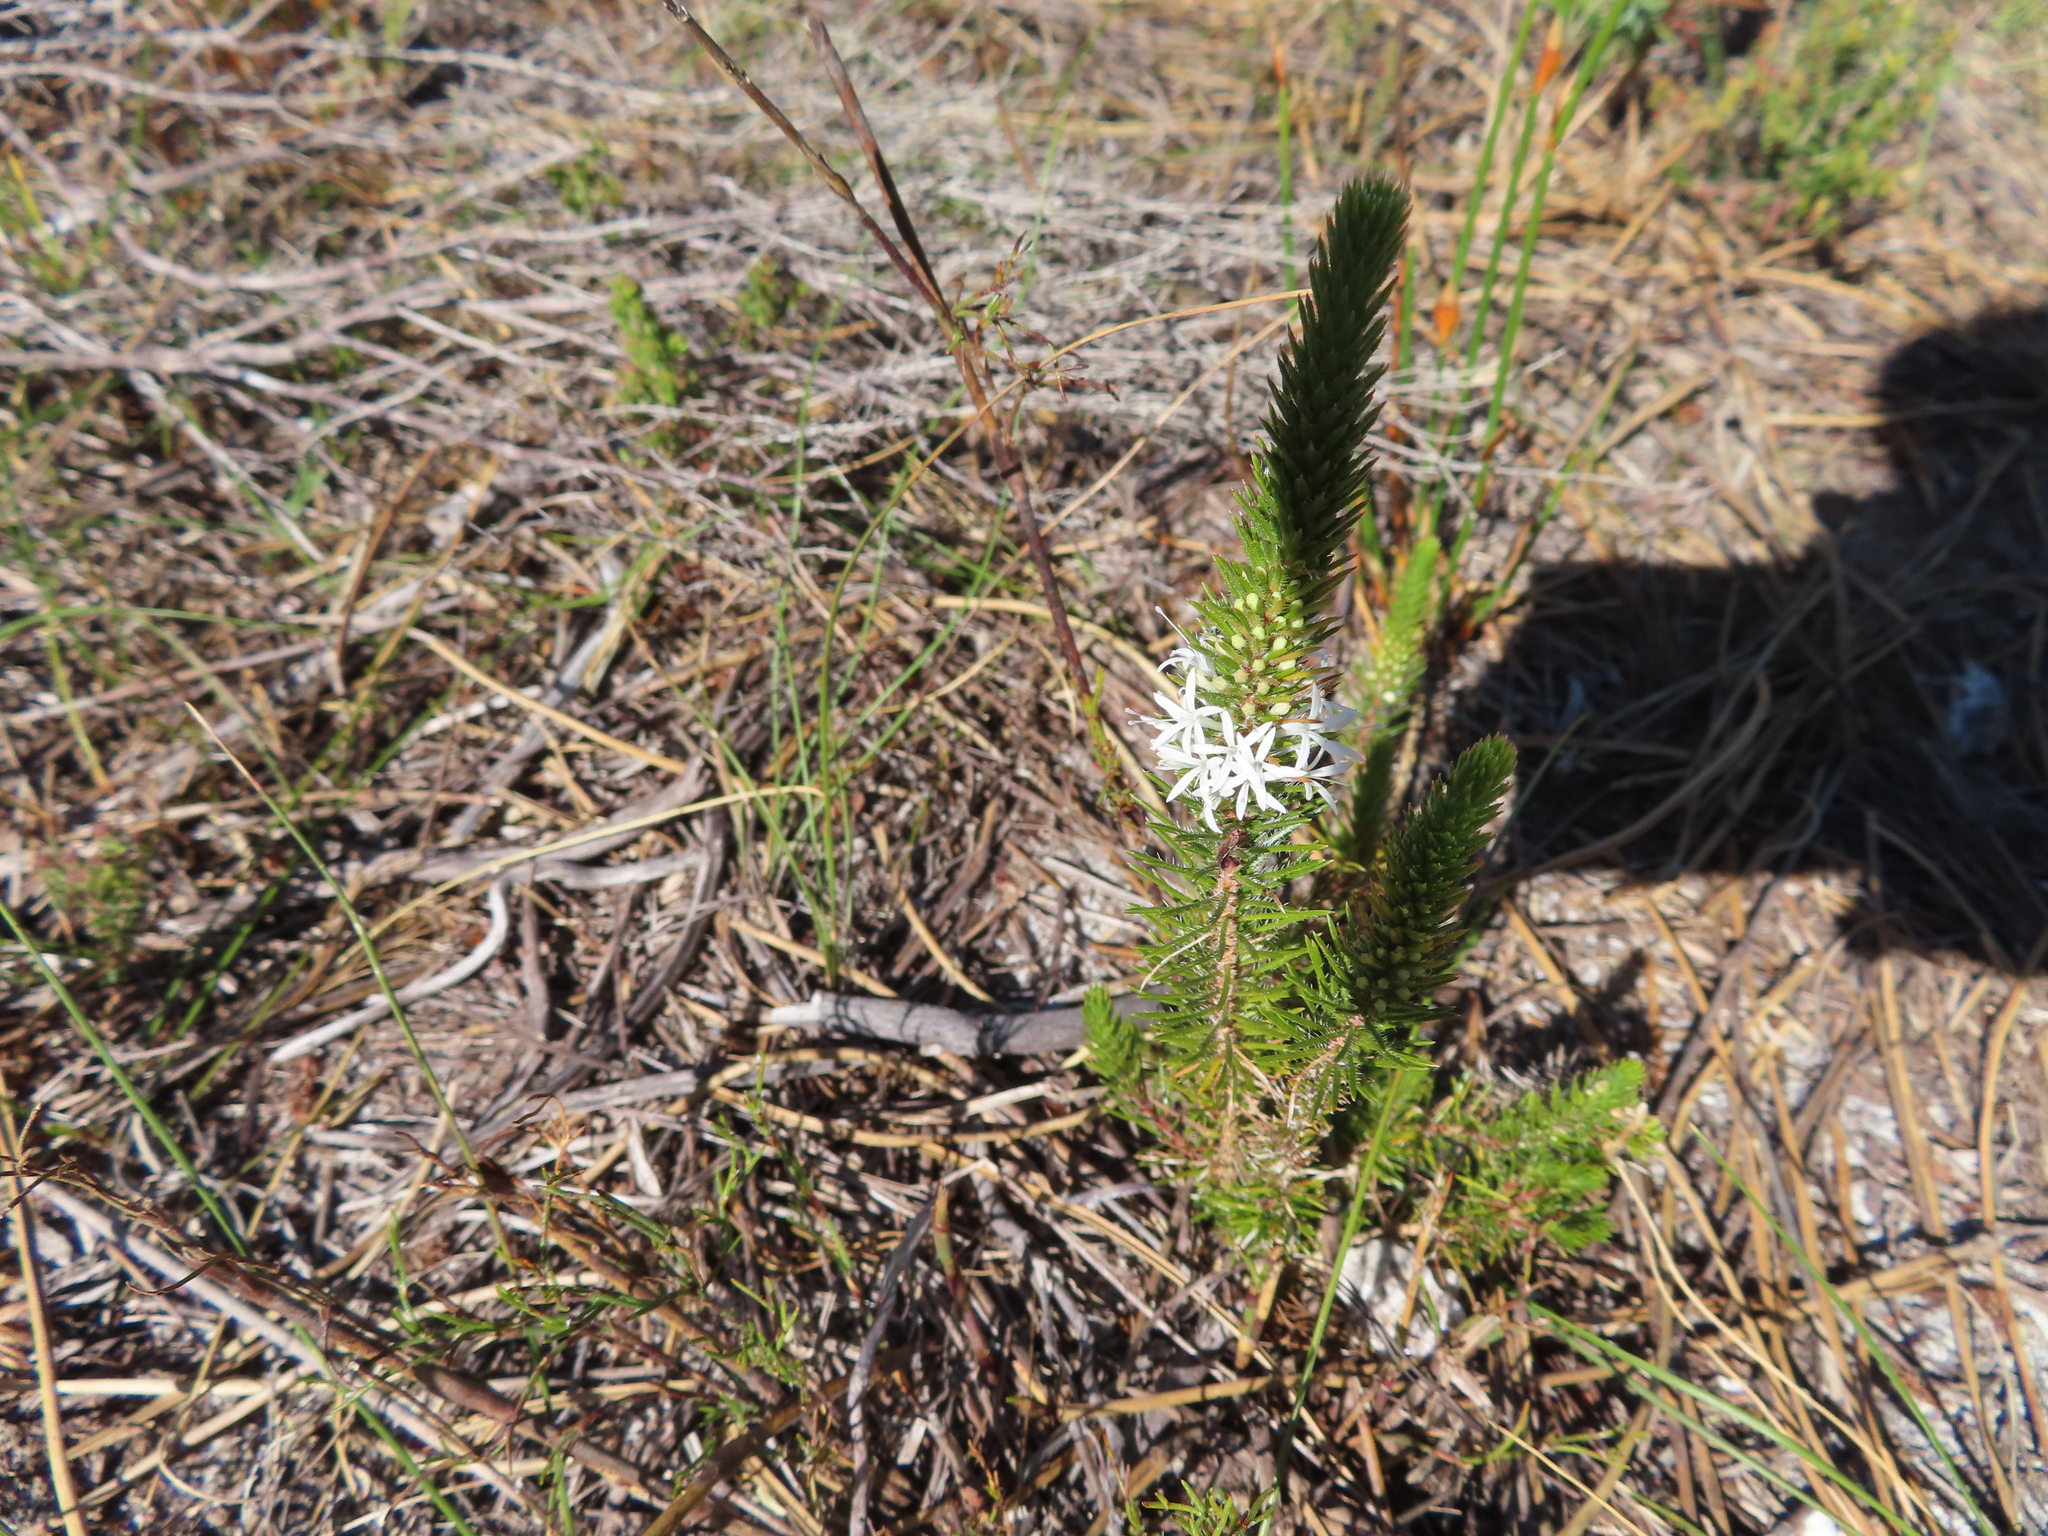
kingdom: Plantae
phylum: Tracheophyta
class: Magnoliopsida
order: Asterales
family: Campanulaceae
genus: Merciera
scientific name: Merciera leptoloba
